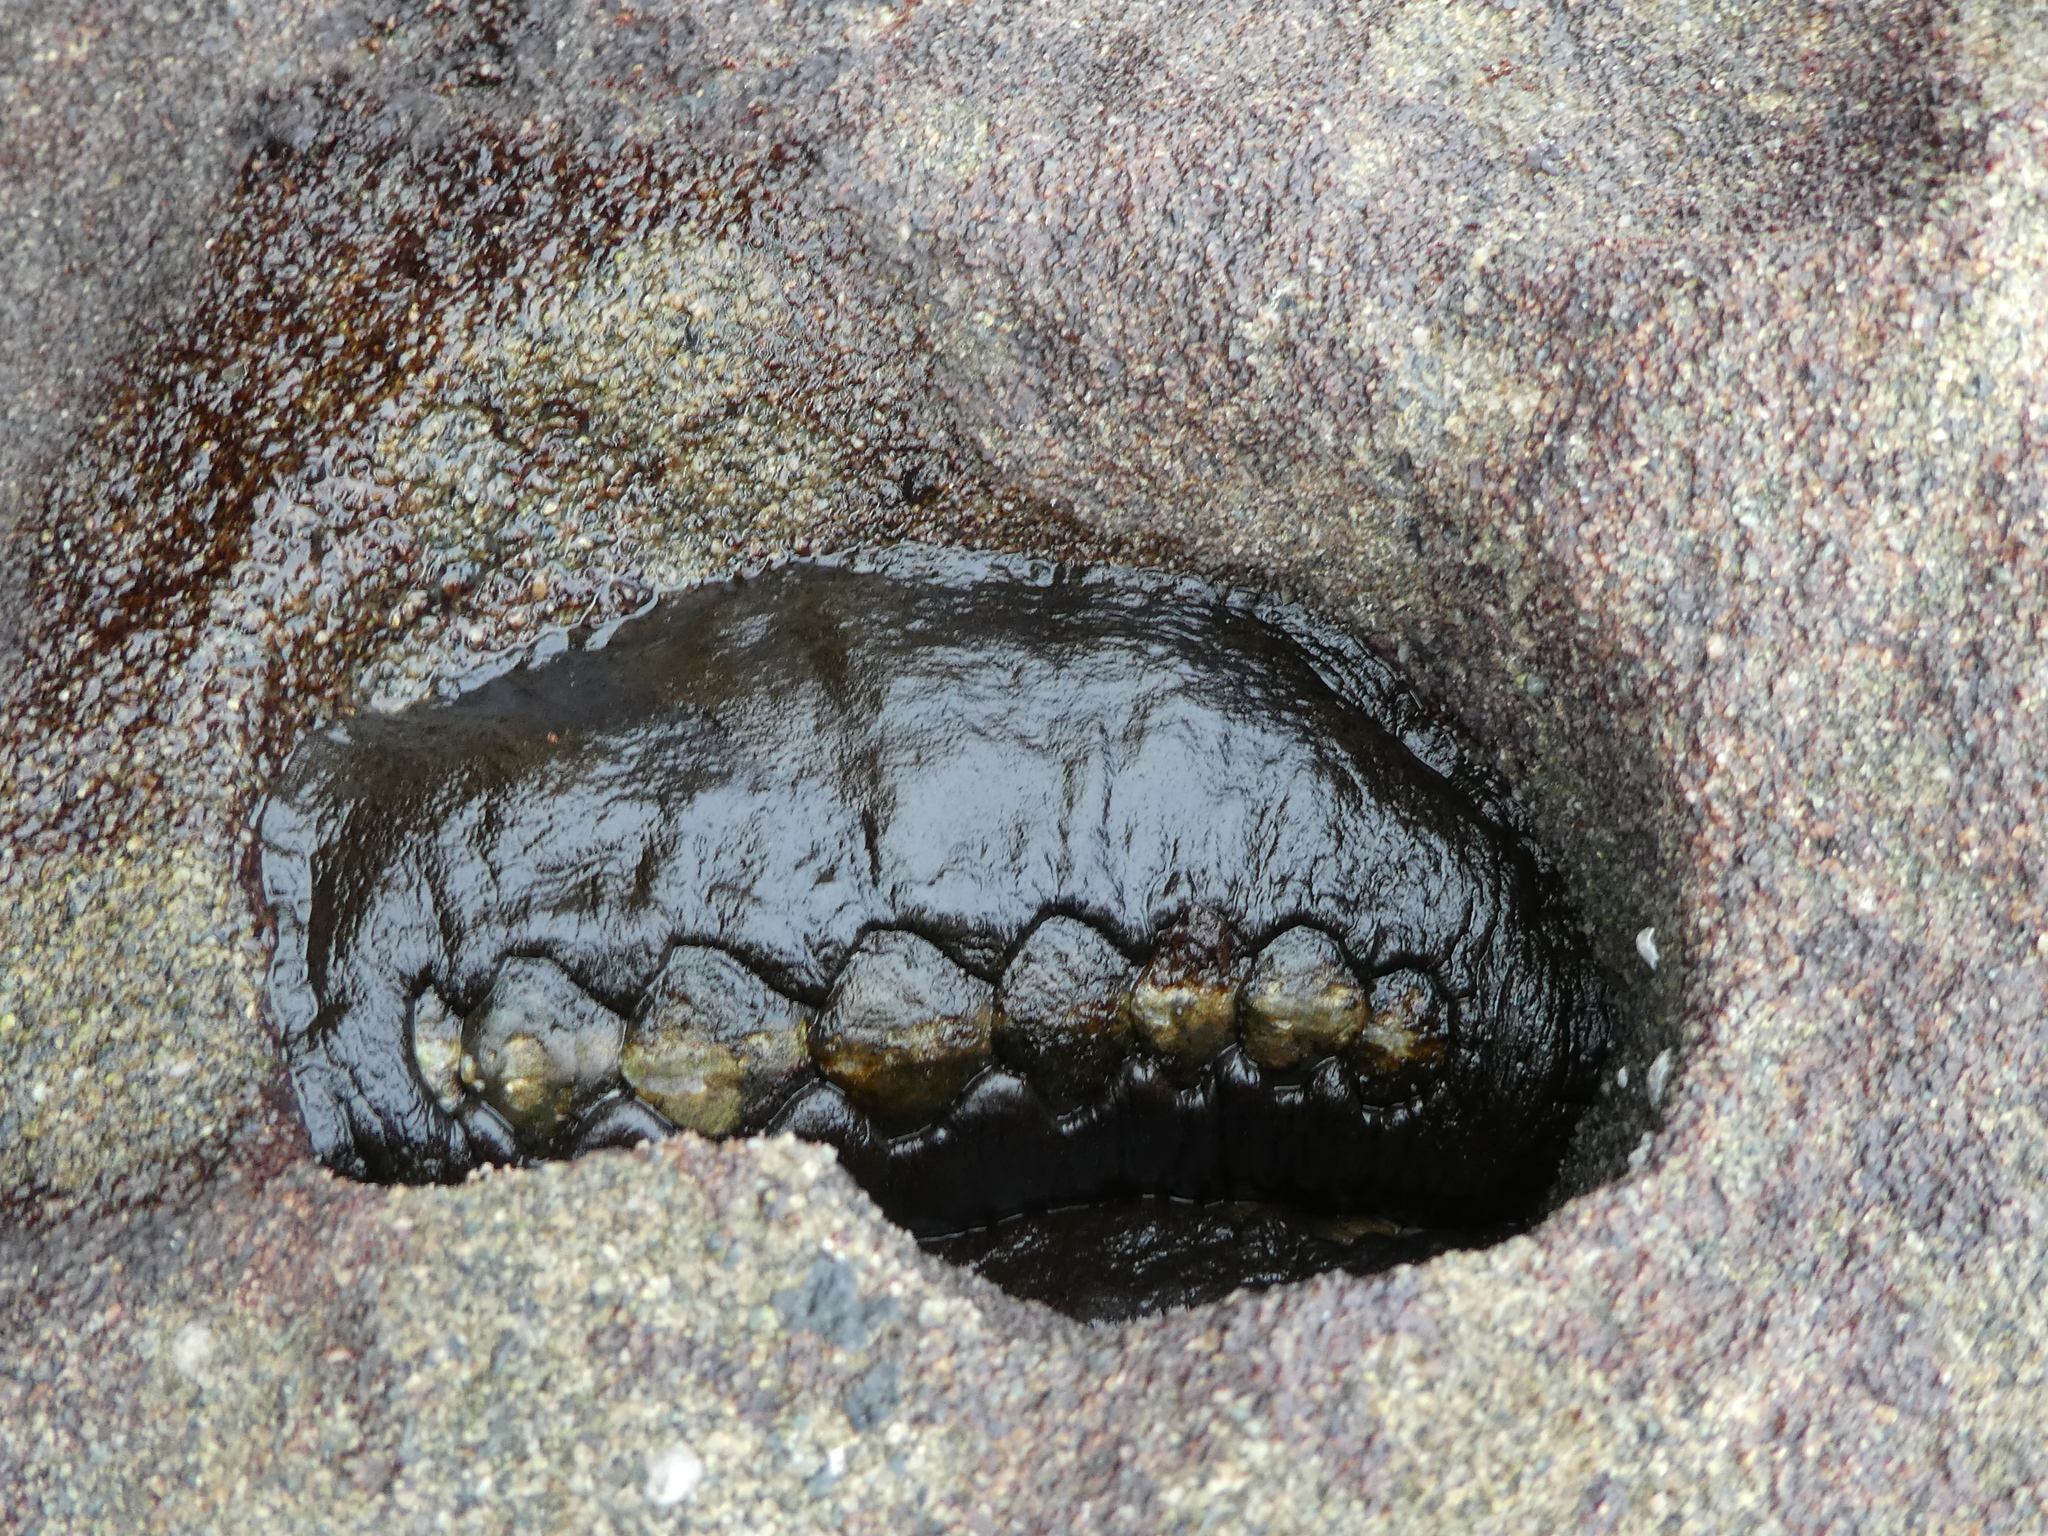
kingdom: Animalia
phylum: Mollusca
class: Polyplacophora
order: Chitonida
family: Mopaliidae
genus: Katharina
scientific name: Katharina tunicata
